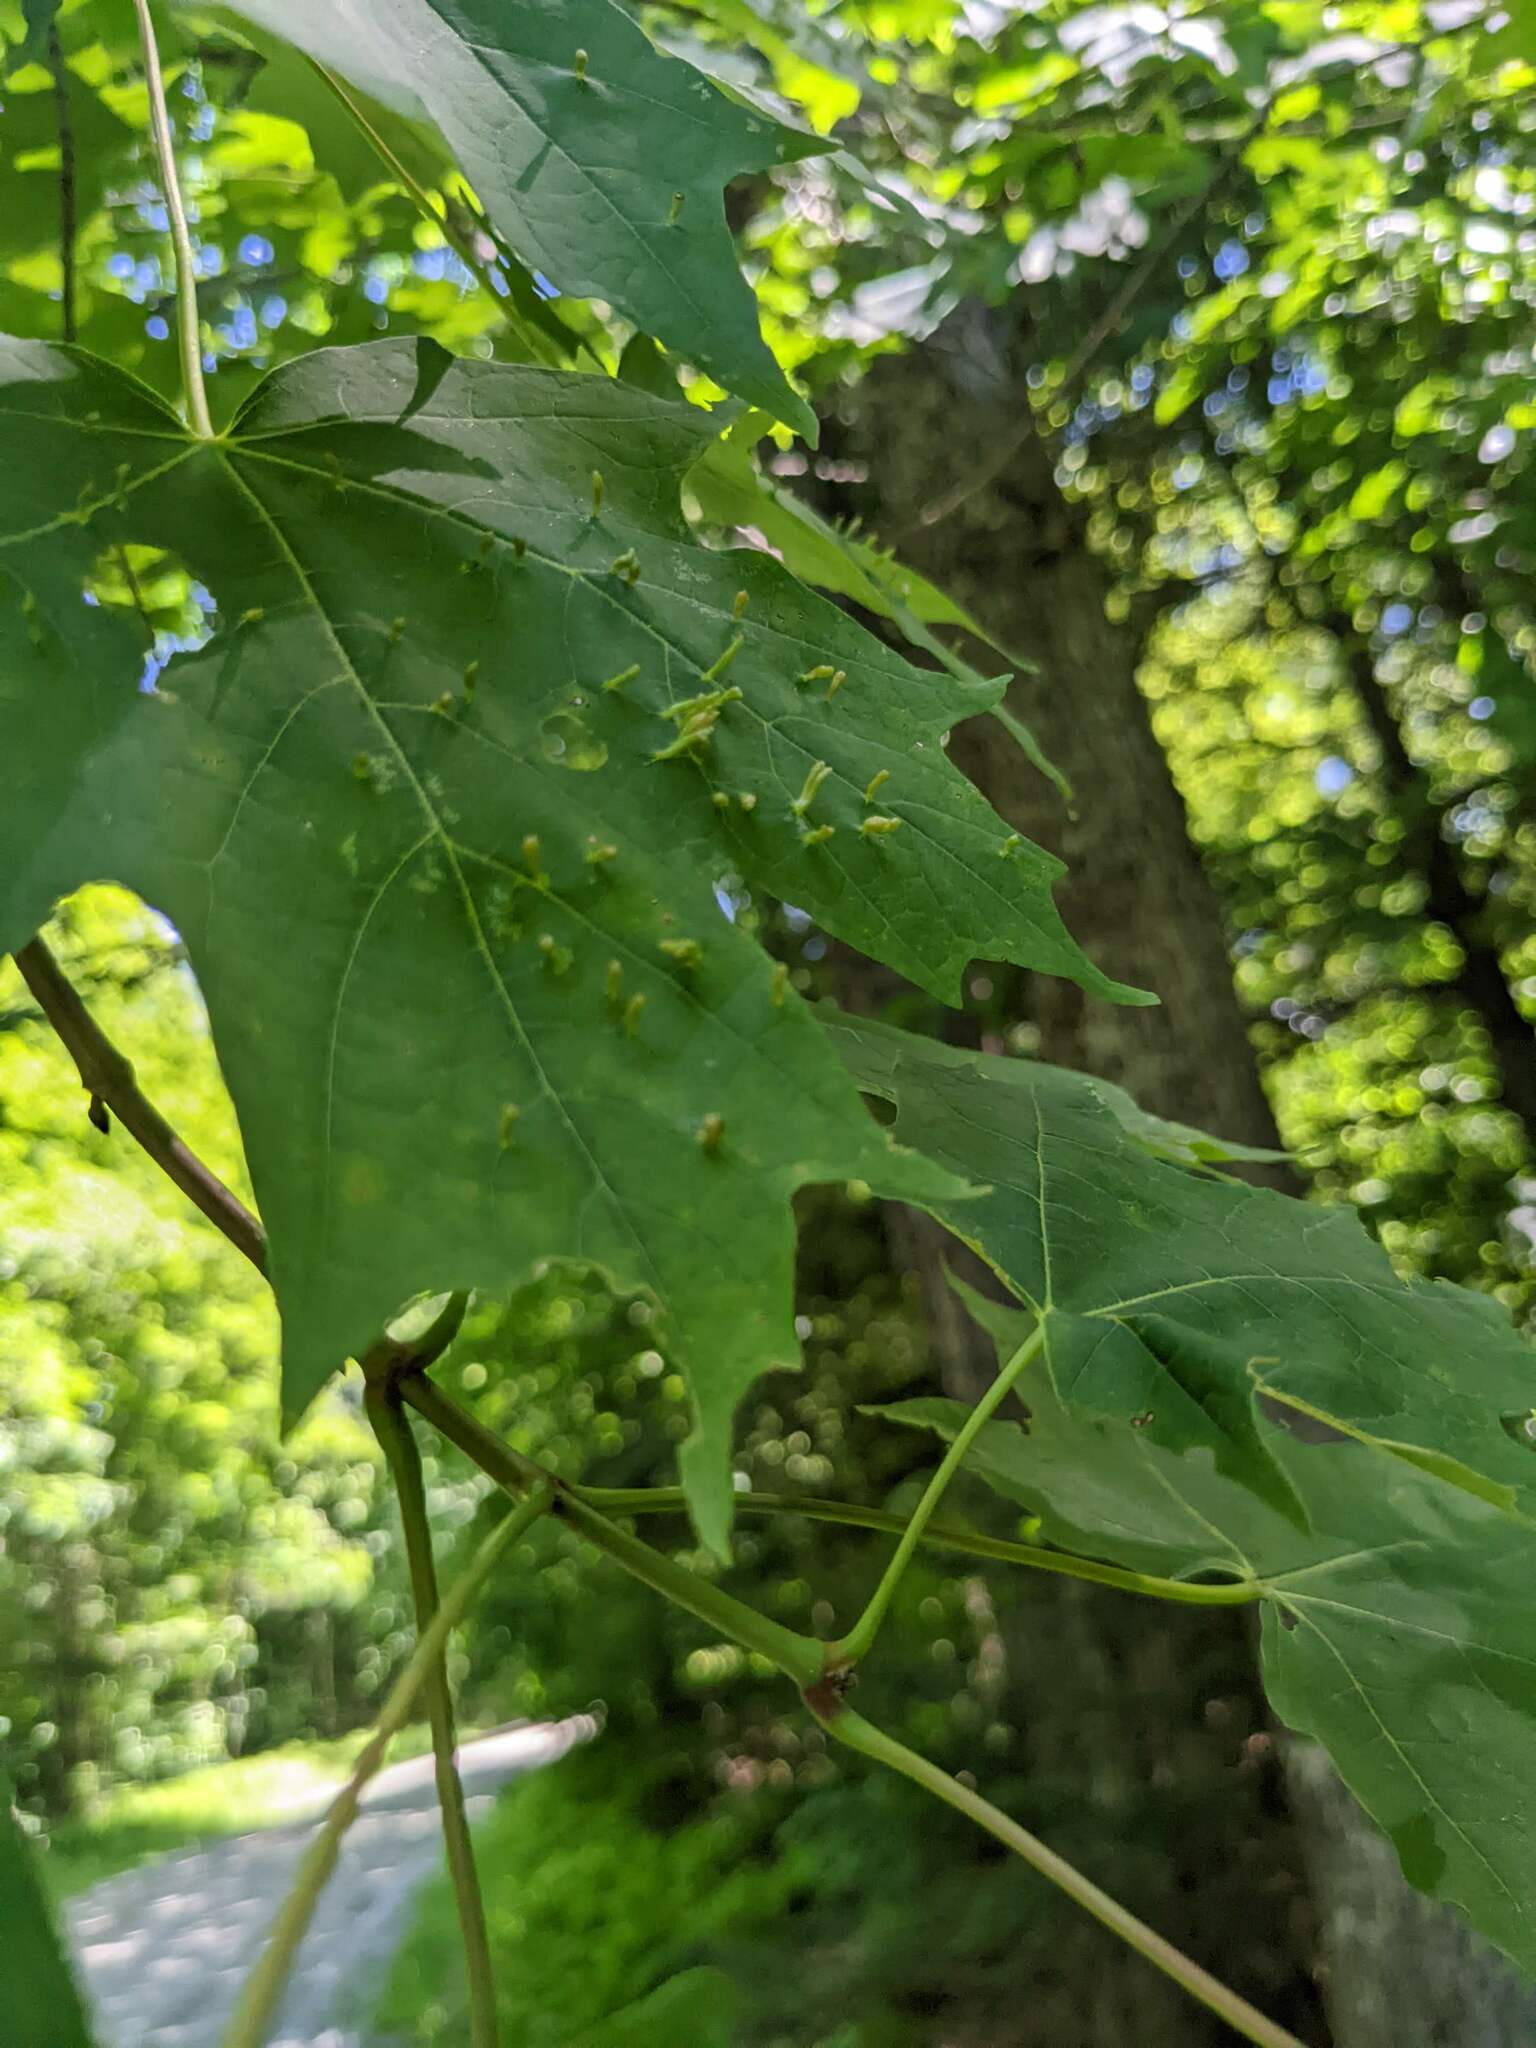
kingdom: Animalia
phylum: Arthropoda
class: Arachnida
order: Trombidiformes
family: Eriophyidae
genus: Vasates
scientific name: Vasates aceriscrumena
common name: Maple spindle gall mite
